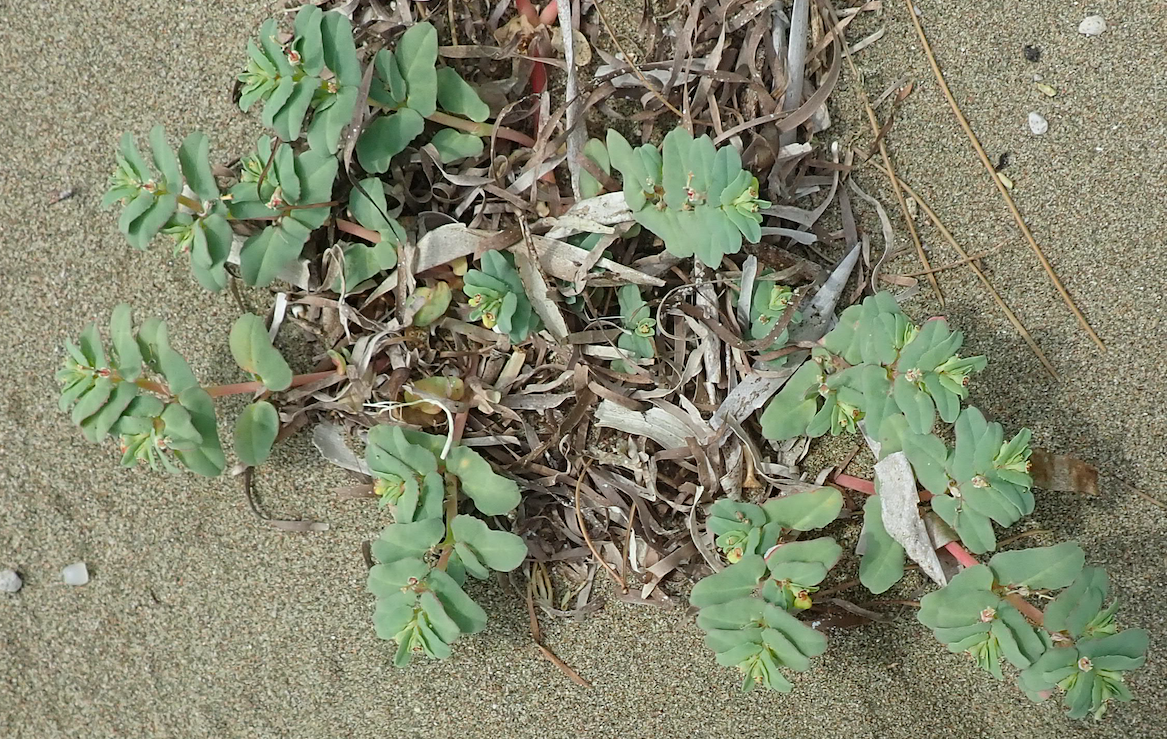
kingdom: Plantae
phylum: Tracheophyta
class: Magnoliopsida
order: Malpighiales
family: Euphorbiaceae
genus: Euphorbia
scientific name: Euphorbia peplis
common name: Purple spurge
